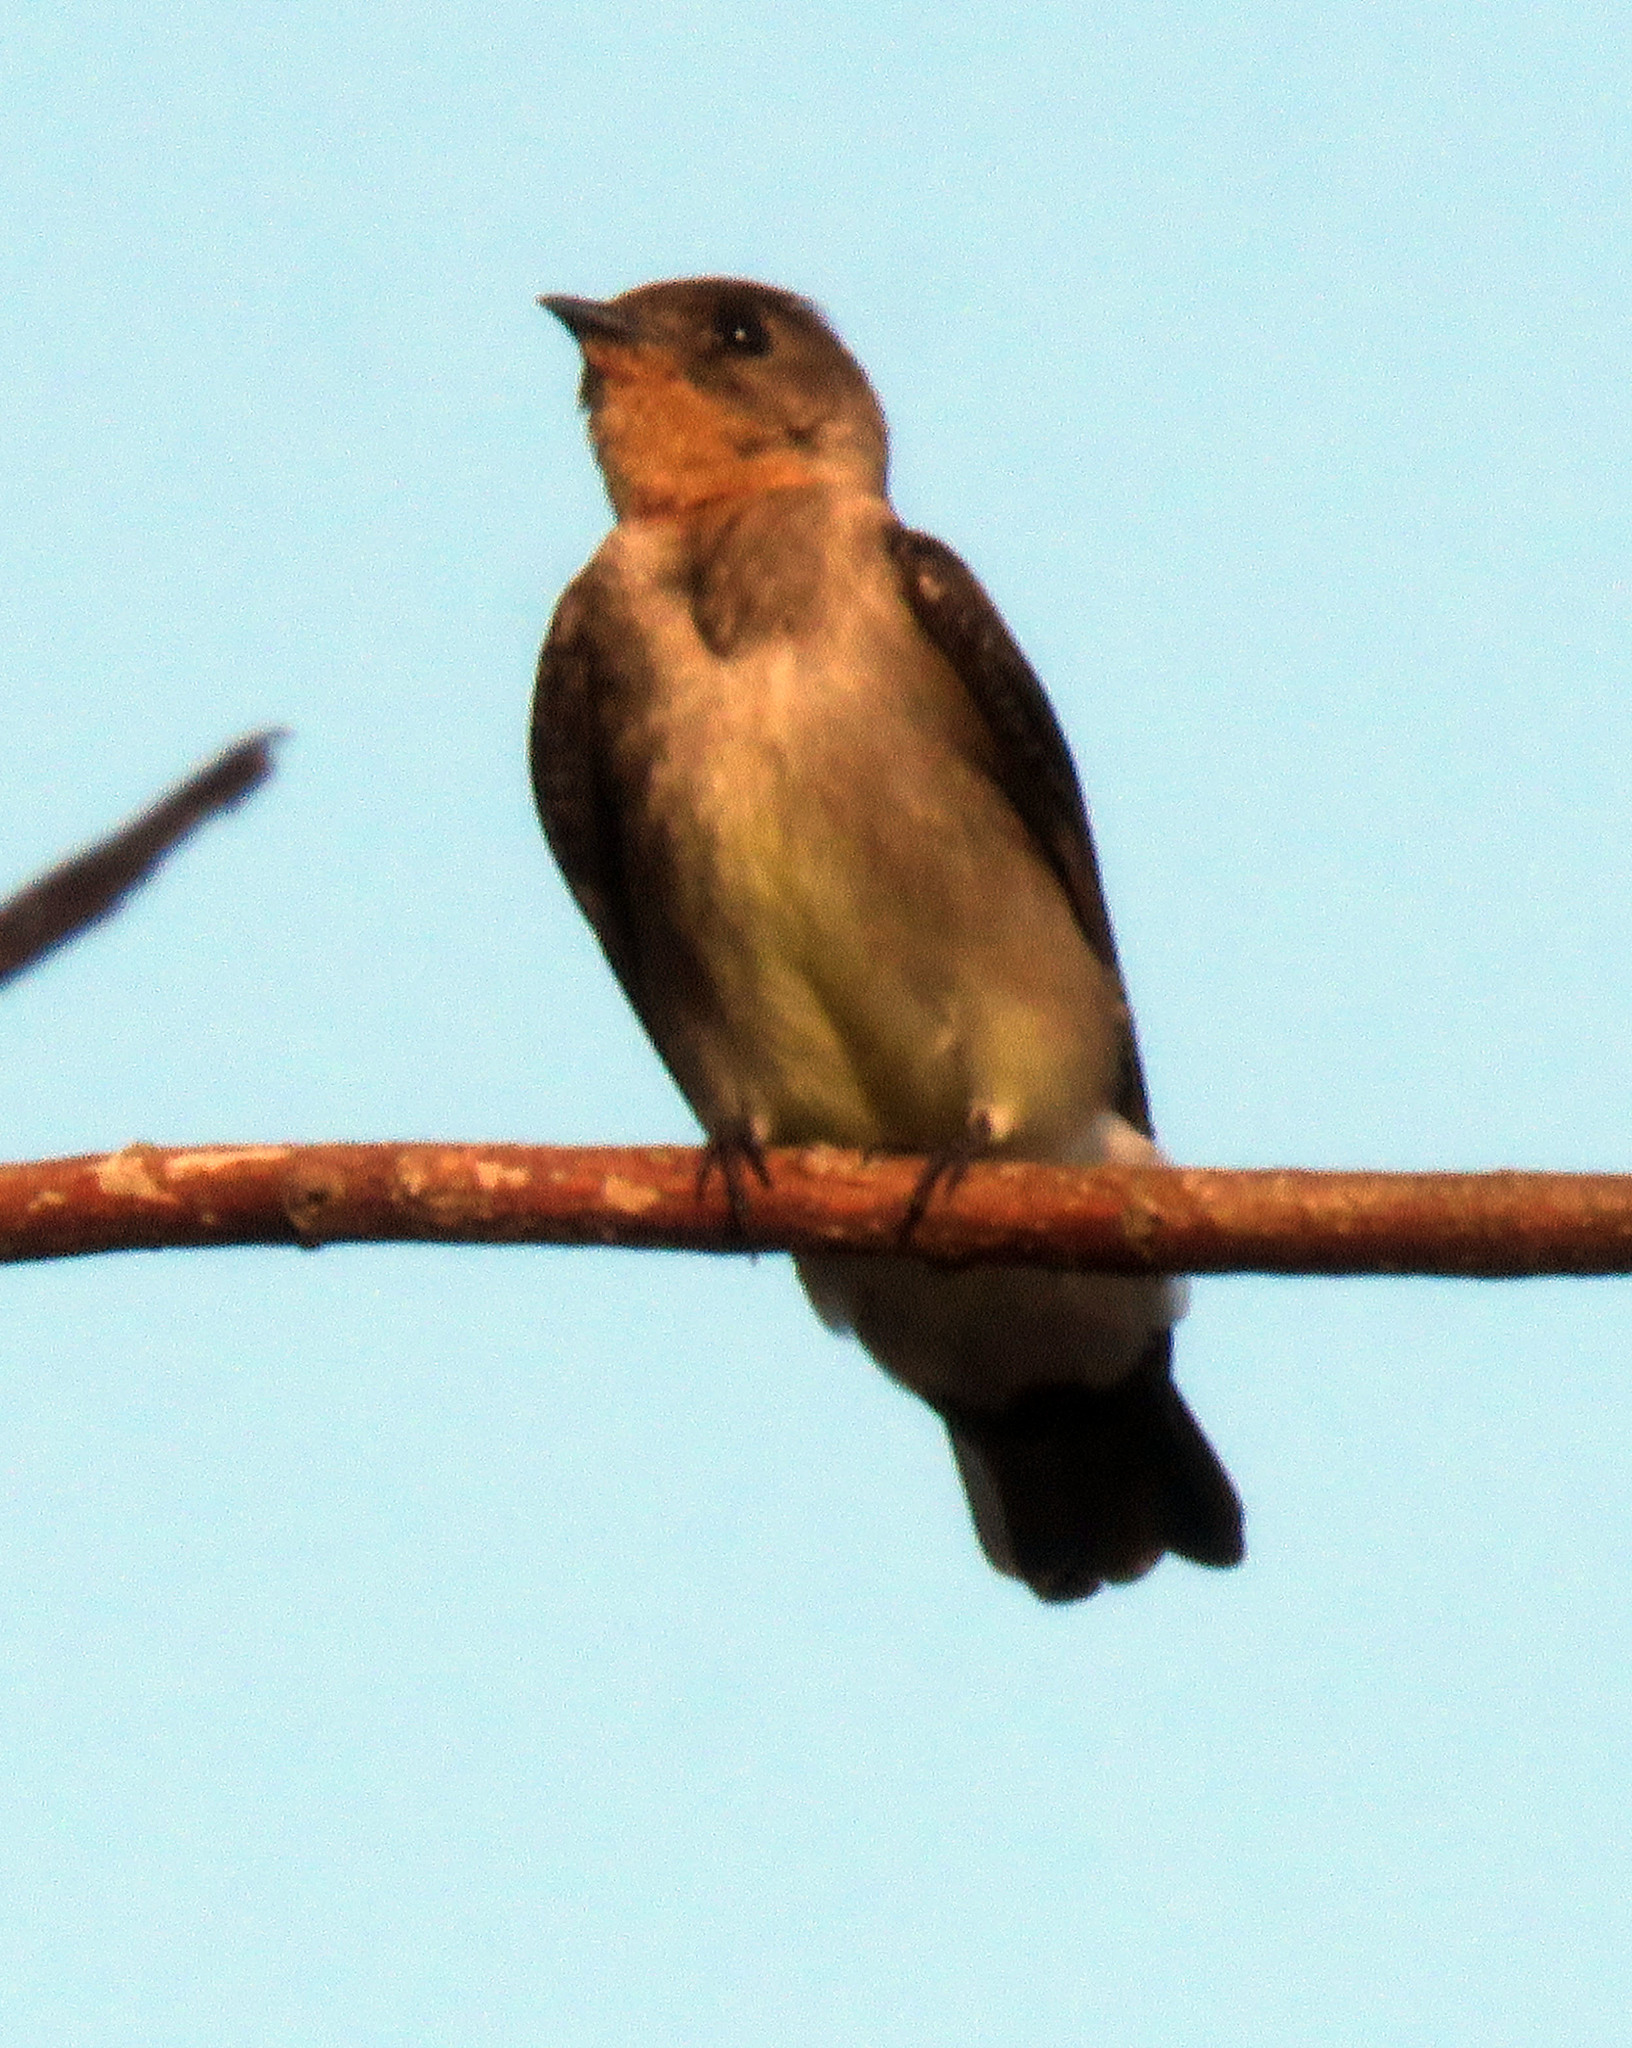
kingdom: Animalia
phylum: Chordata
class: Aves
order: Passeriformes
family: Hirundinidae
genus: Stelgidopteryx
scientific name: Stelgidopteryx ruficollis
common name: Southern rough-winged swallow
